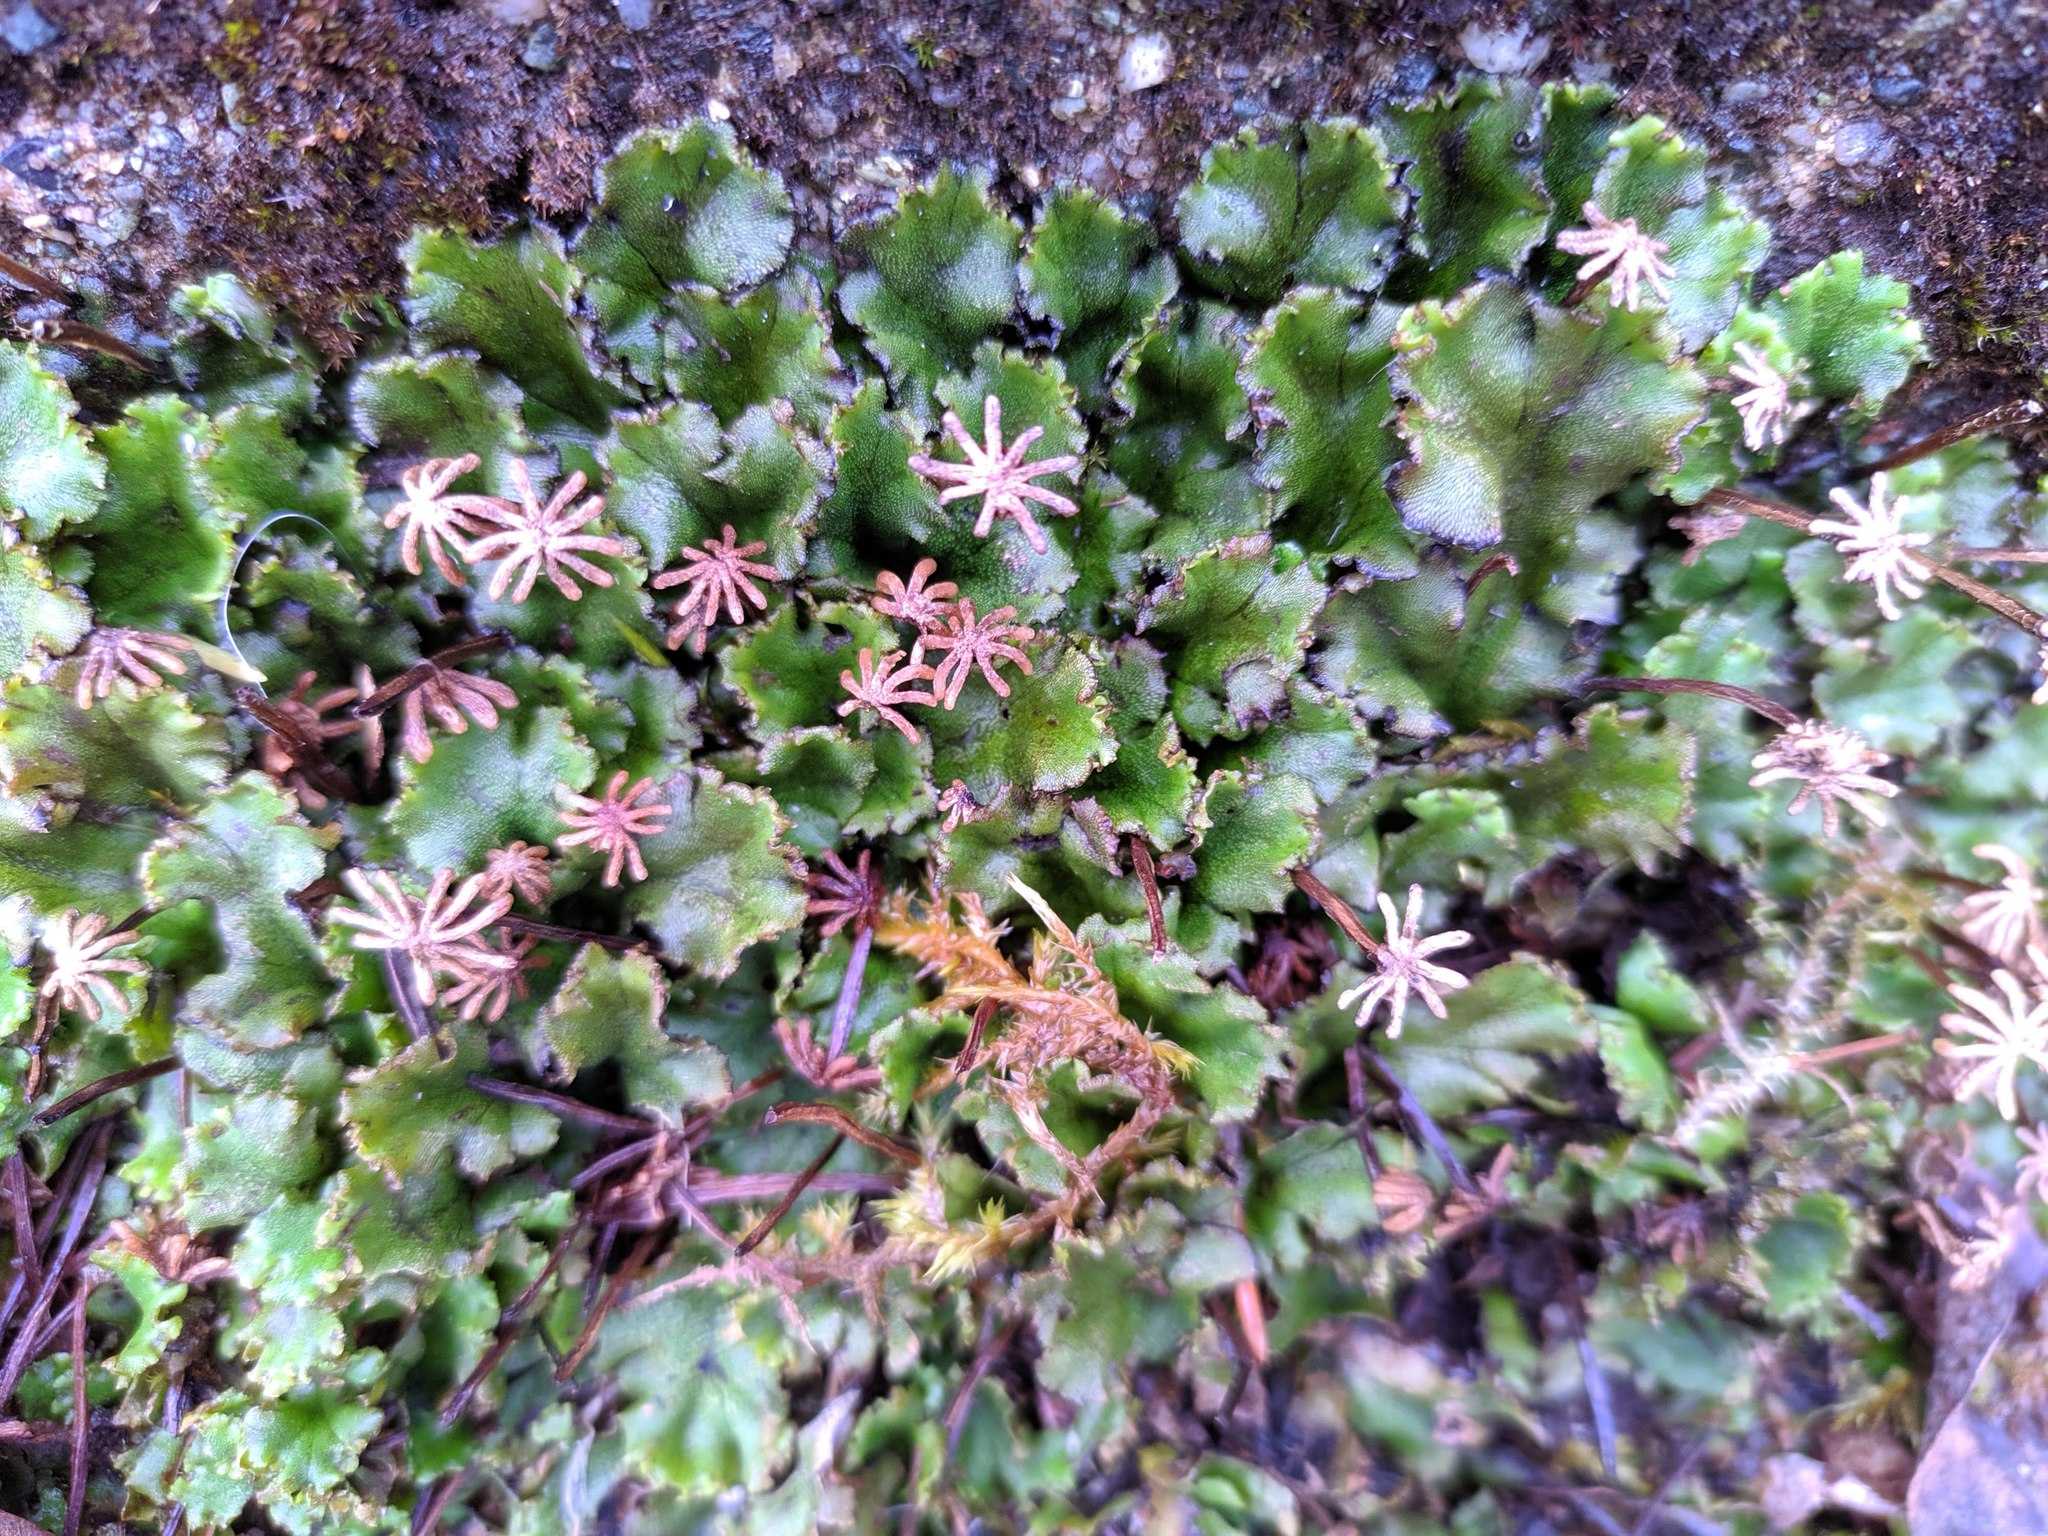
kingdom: Plantae
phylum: Marchantiophyta
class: Marchantiopsida
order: Marchantiales
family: Marchantiaceae
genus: Marchantia
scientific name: Marchantia polymorpha
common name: Common liverwort
